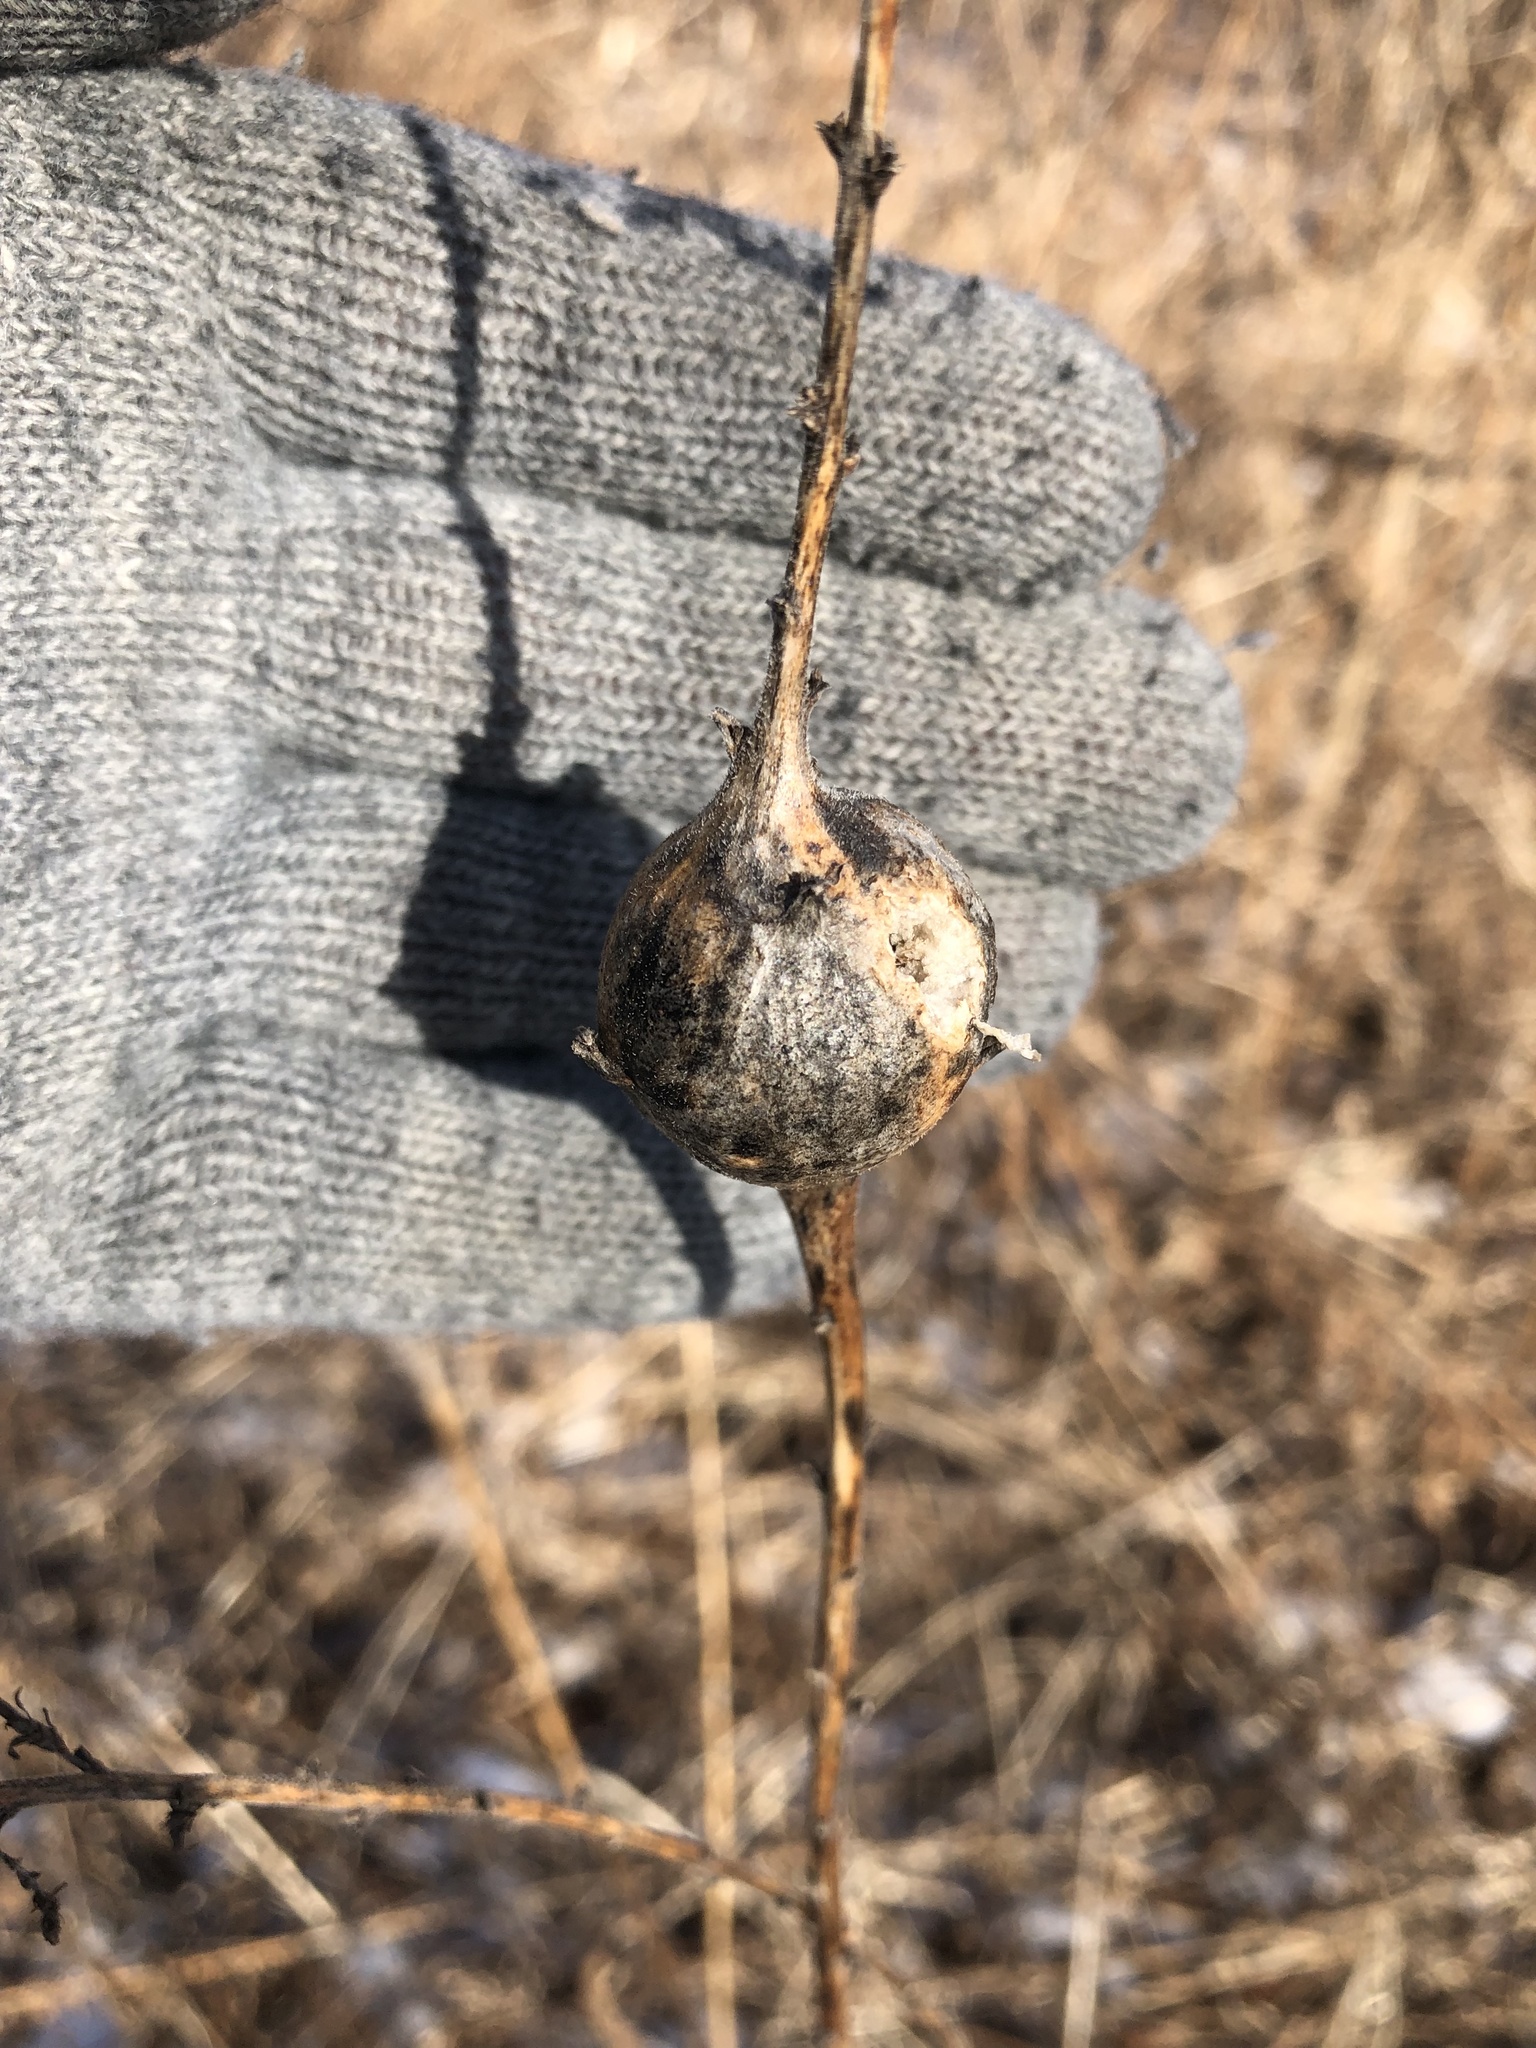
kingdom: Animalia
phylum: Arthropoda
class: Insecta
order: Diptera
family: Tephritidae
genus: Eurosta
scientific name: Eurosta solidaginis
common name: Goldenrod gall fly
